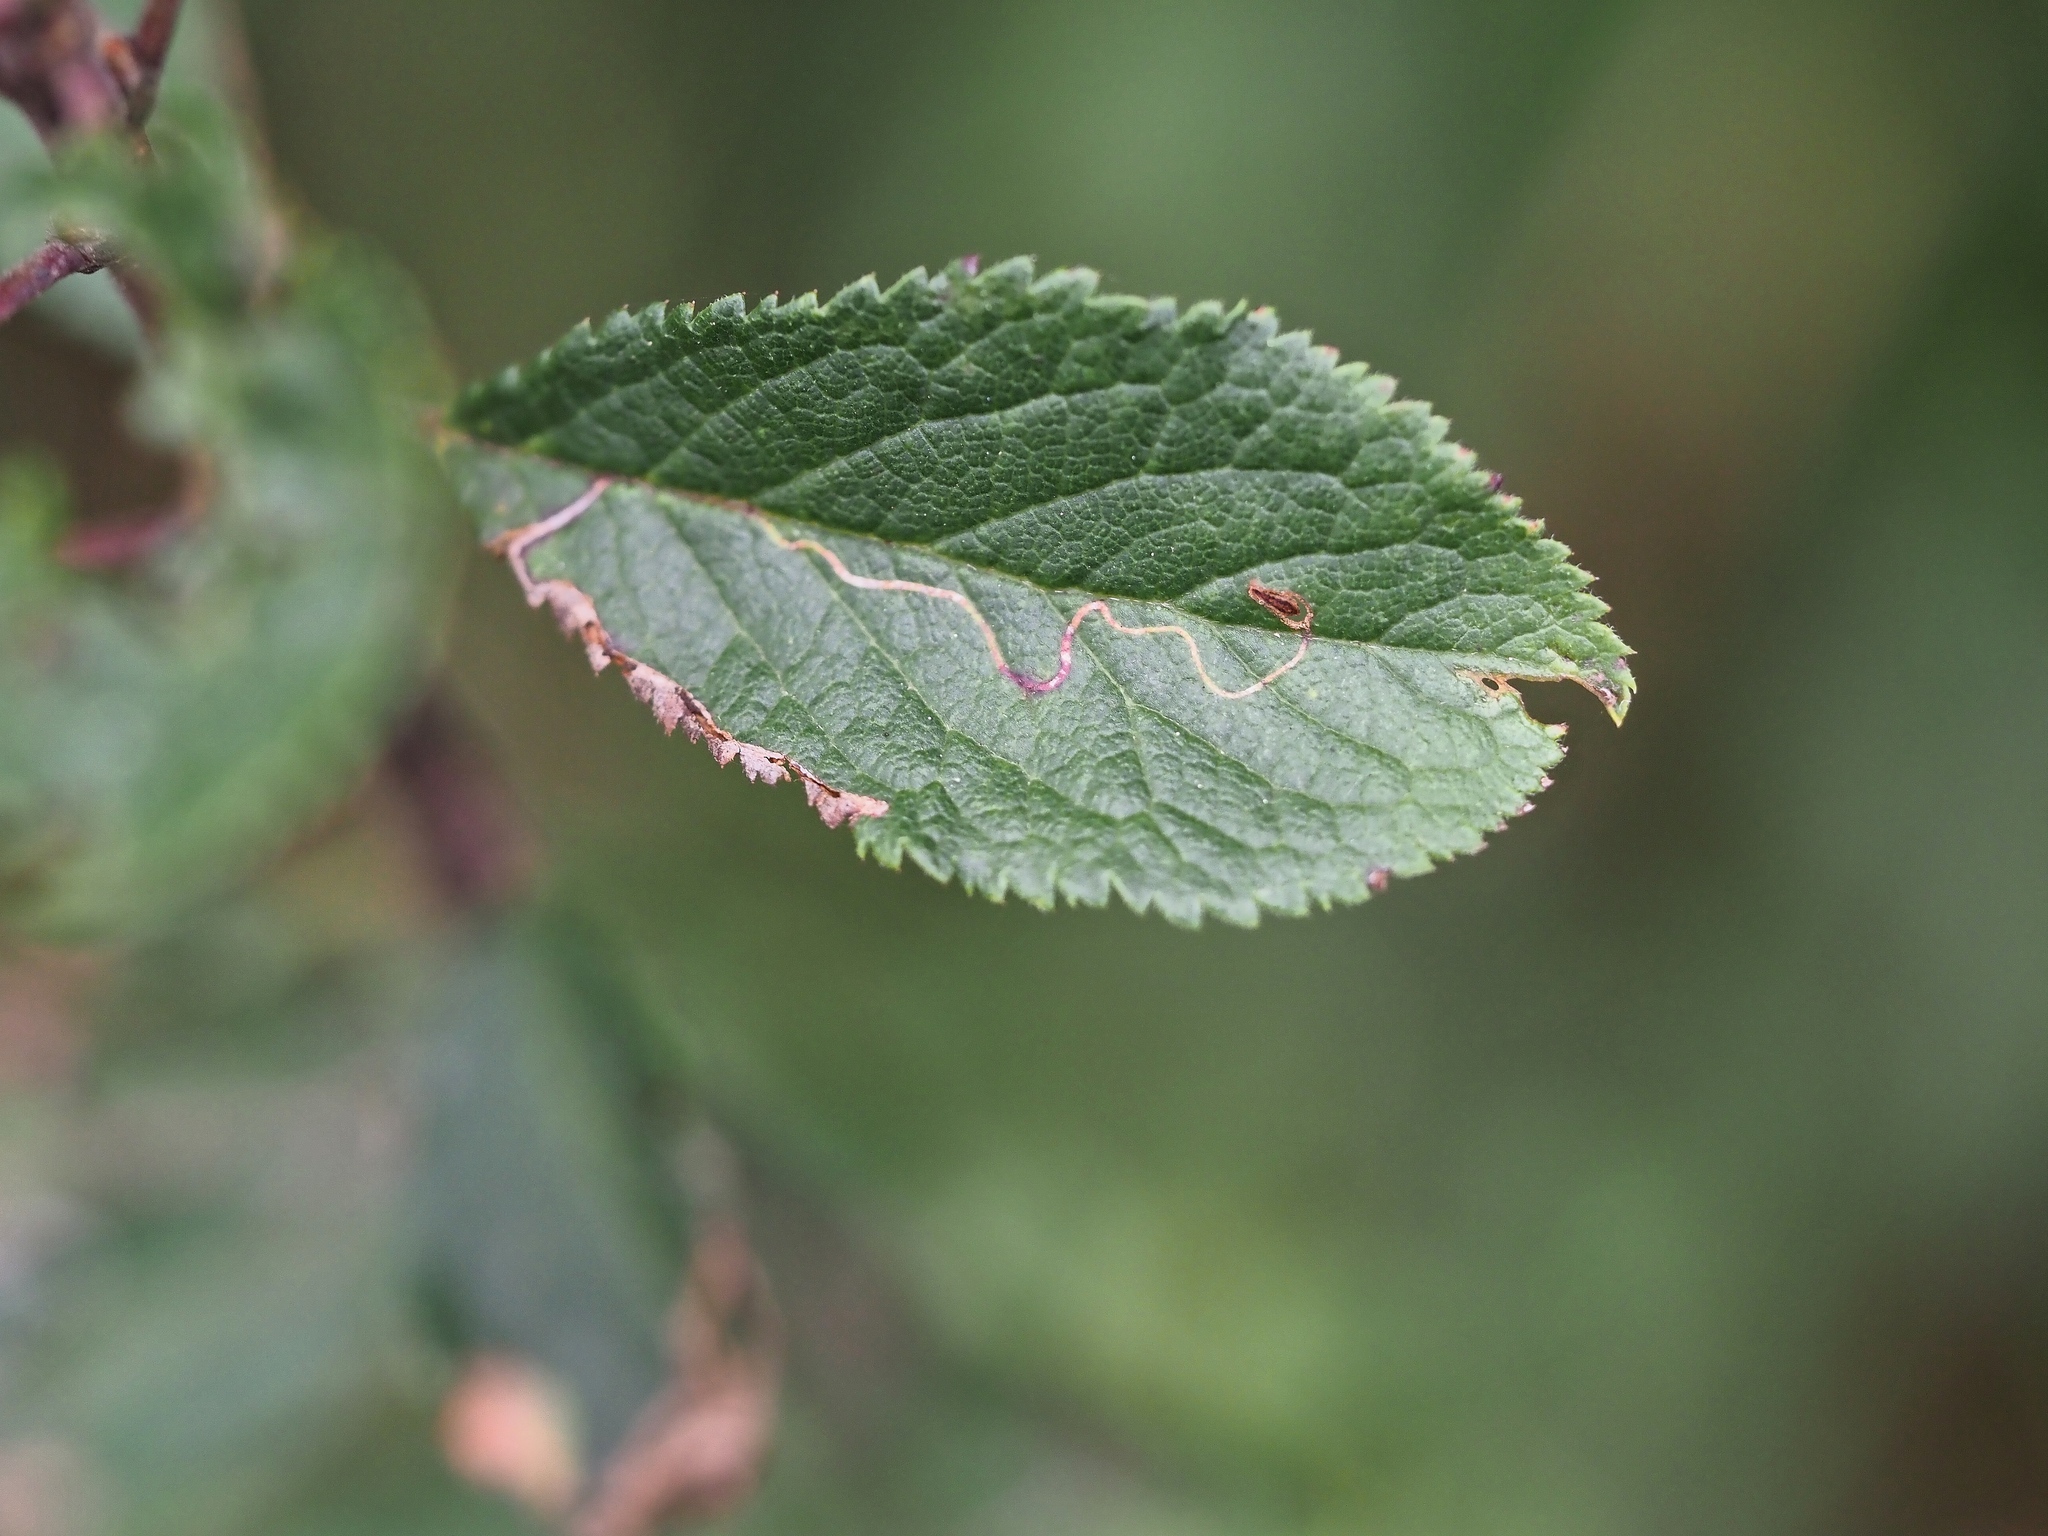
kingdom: Animalia
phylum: Arthropoda
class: Insecta
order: Lepidoptera
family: Lyonetiidae
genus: Lyonetia
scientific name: Lyonetia clerkella
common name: Apple leaf miner
